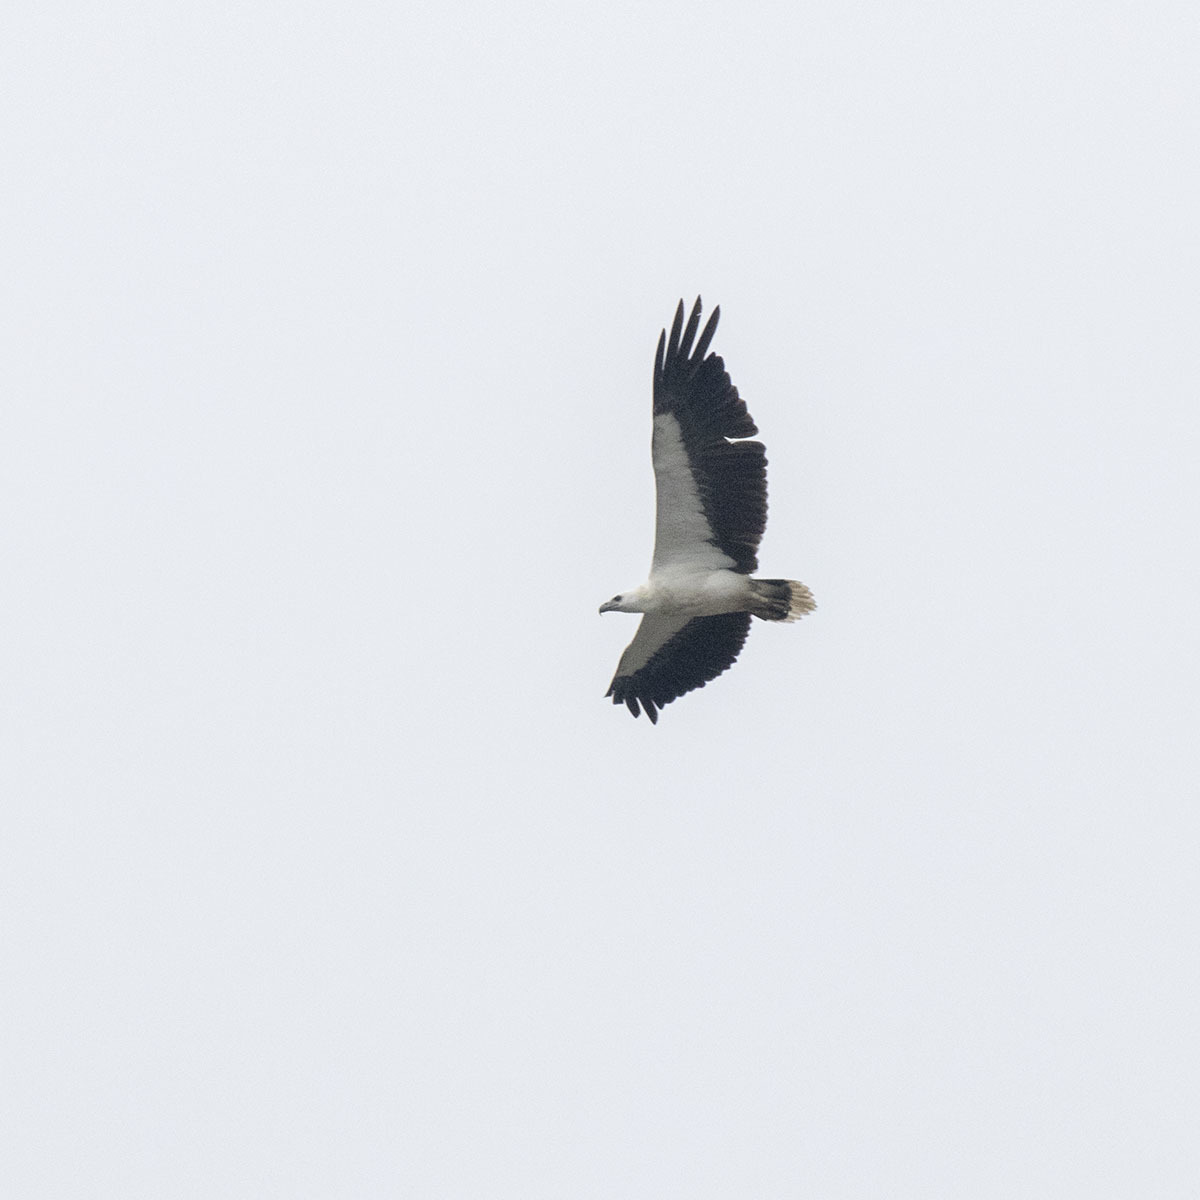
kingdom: Animalia
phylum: Chordata
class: Aves
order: Accipitriformes
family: Accipitridae
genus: Haliaeetus
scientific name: Haliaeetus leucogaster
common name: White-bellied sea eagle
